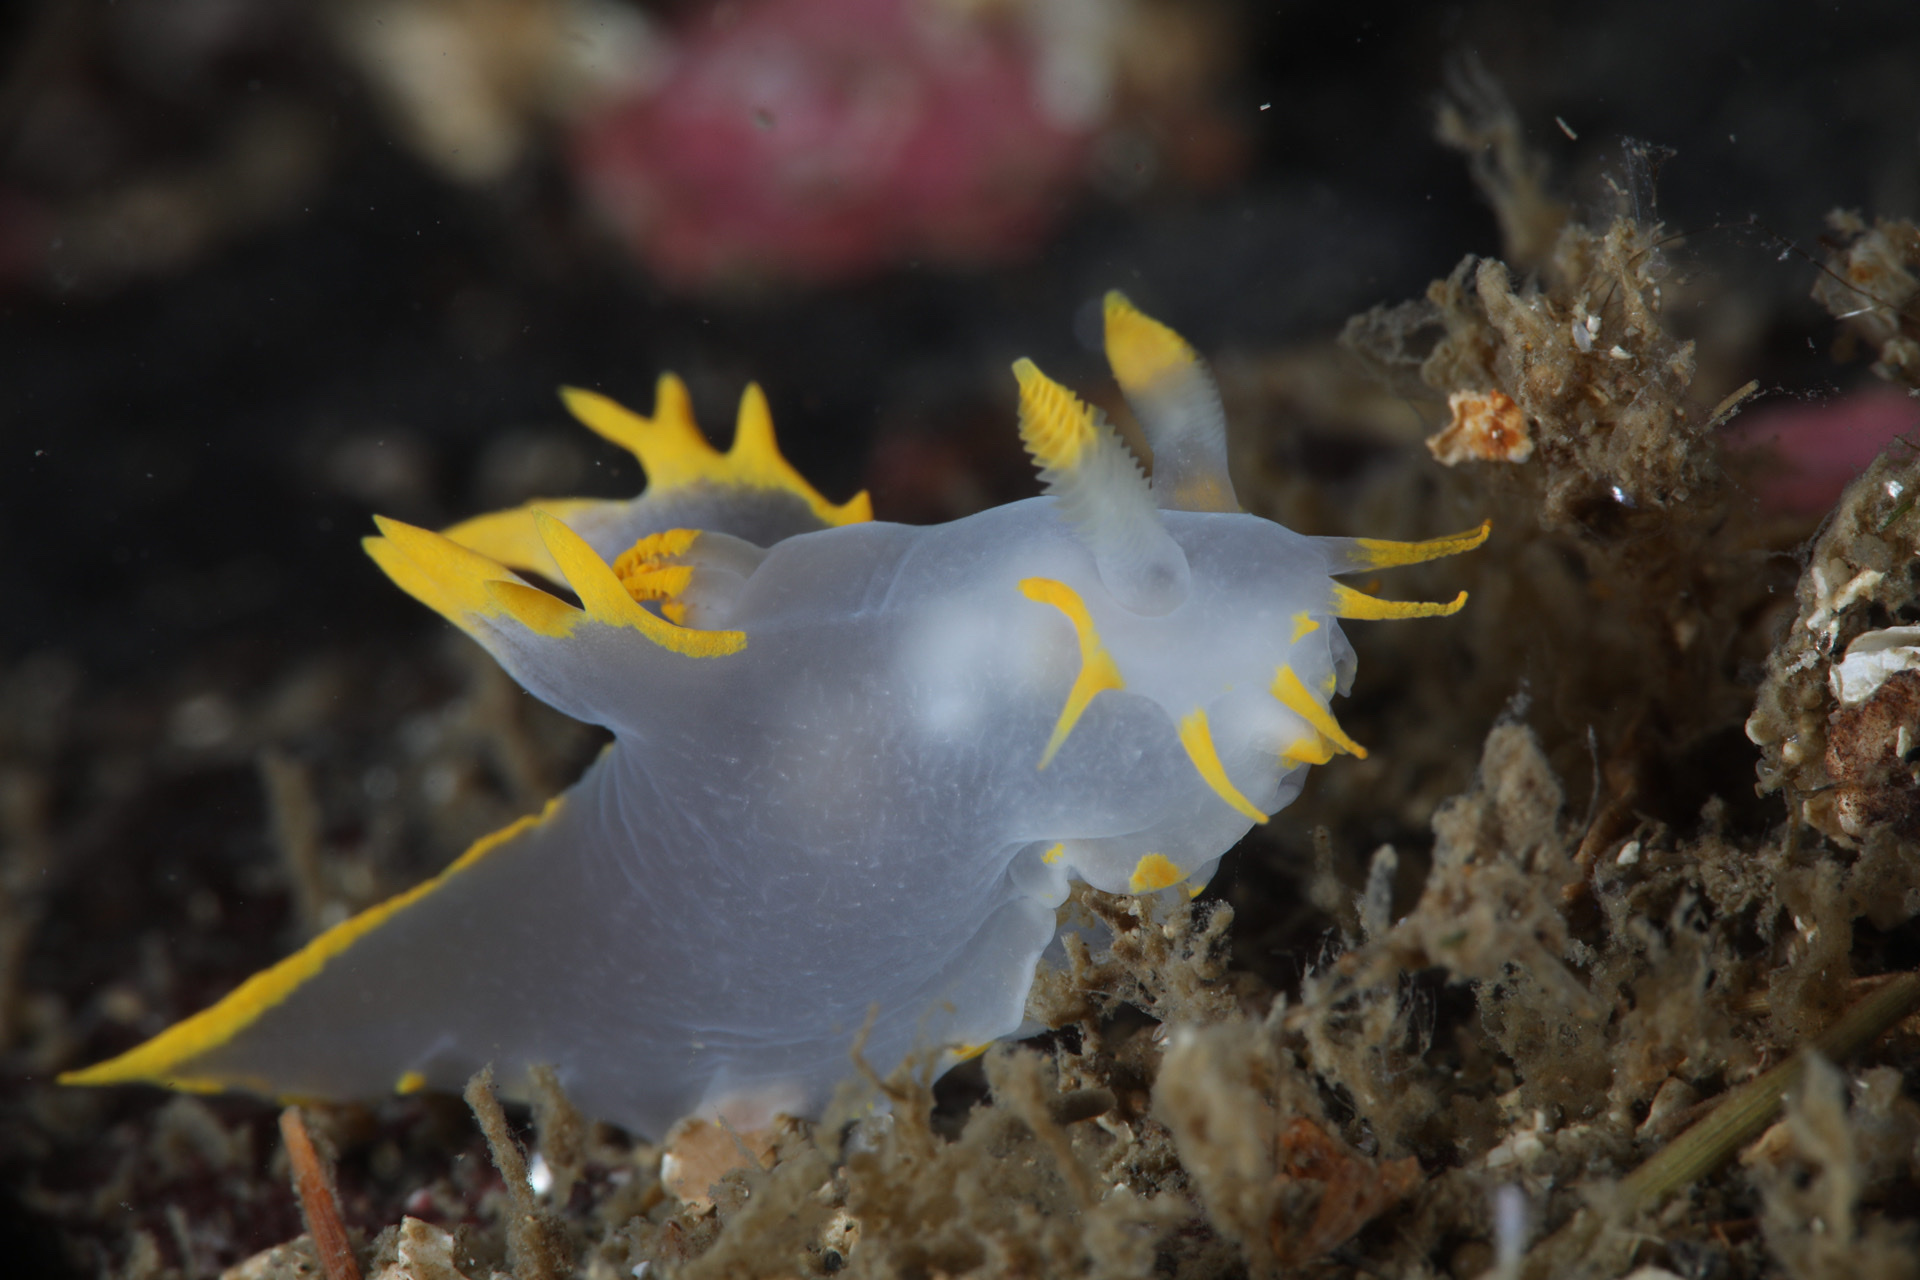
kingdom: Animalia
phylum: Mollusca
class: Gastropoda
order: Nudibranchia
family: Polyceridae
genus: Polycera
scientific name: Polycera faeroensis
